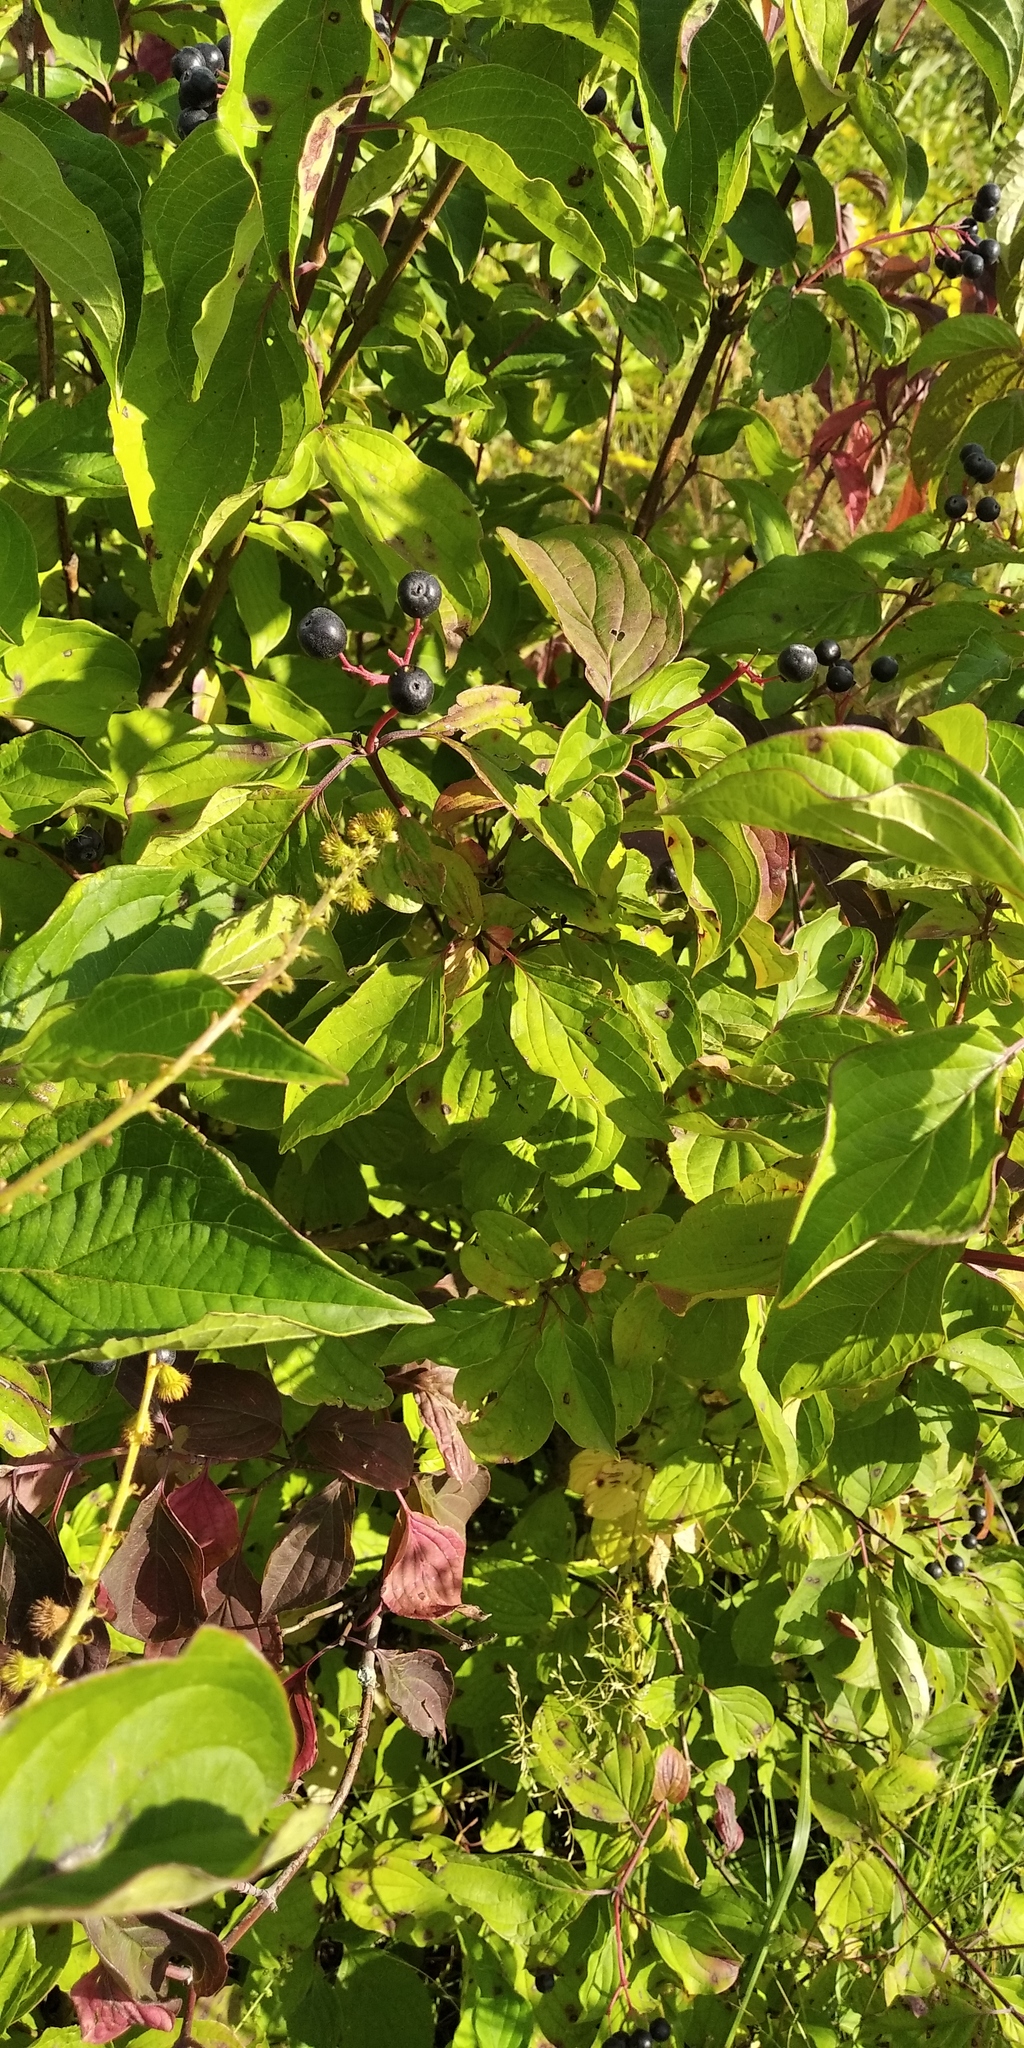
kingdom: Plantae
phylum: Tracheophyta
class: Magnoliopsida
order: Cornales
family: Cornaceae
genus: Cornus
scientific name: Cornus sanguinea
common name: Dogwood
